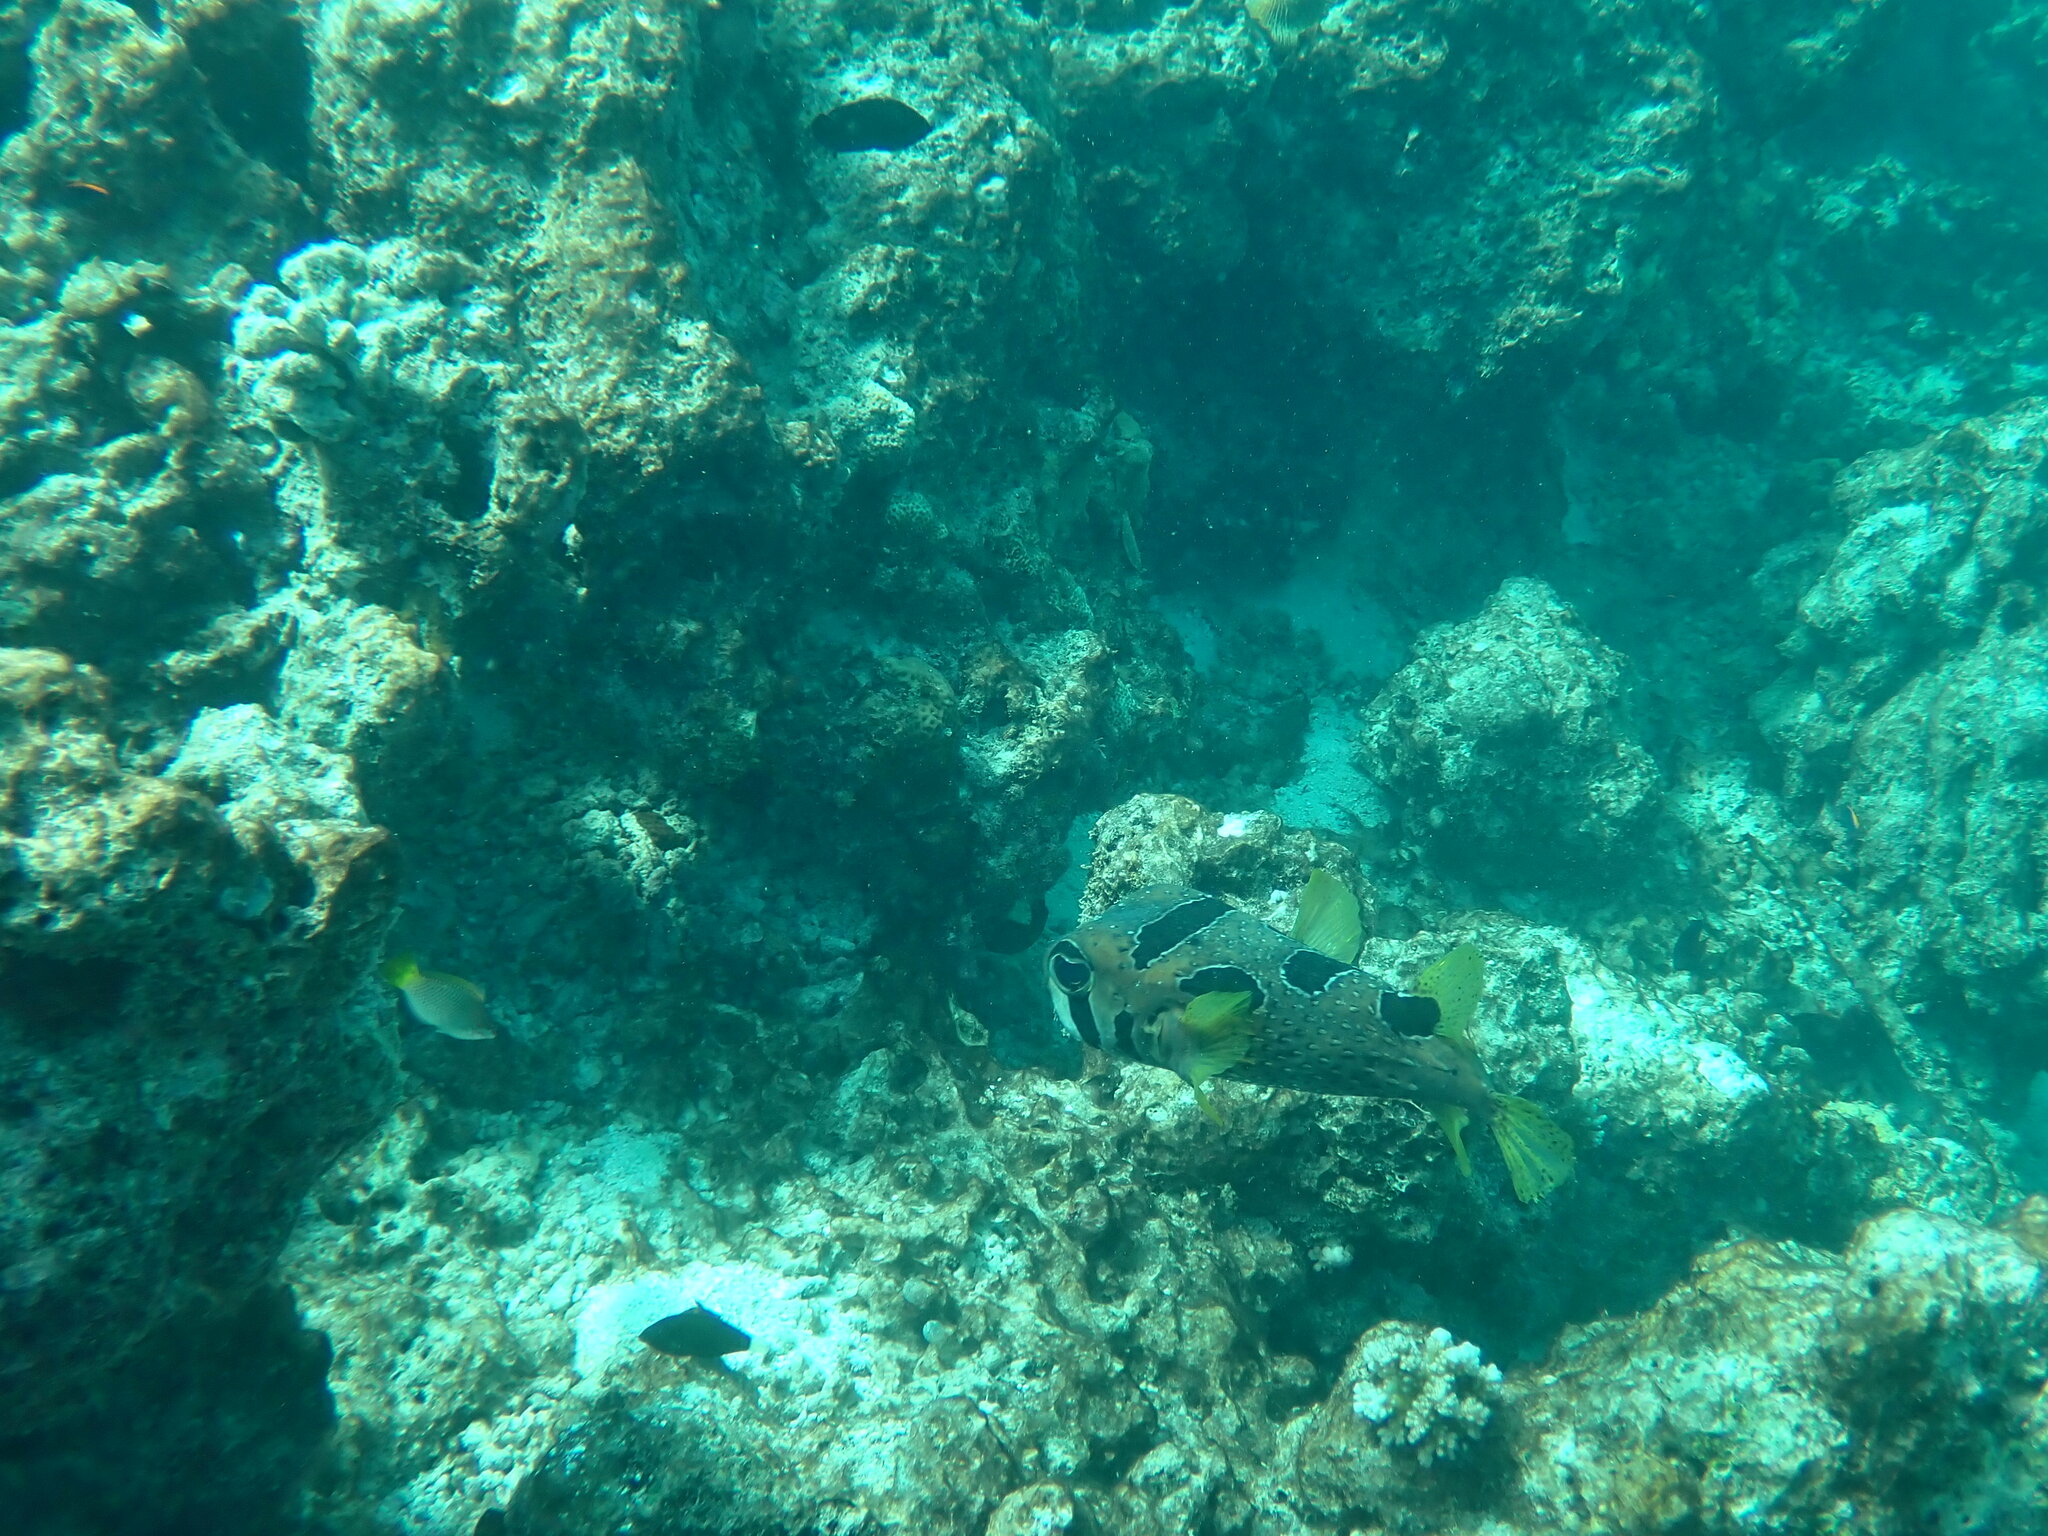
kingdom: Animalia
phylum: Chordata
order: Tetraodontiformes
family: Diodontidae
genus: Diodon
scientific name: Diodon liturosus
